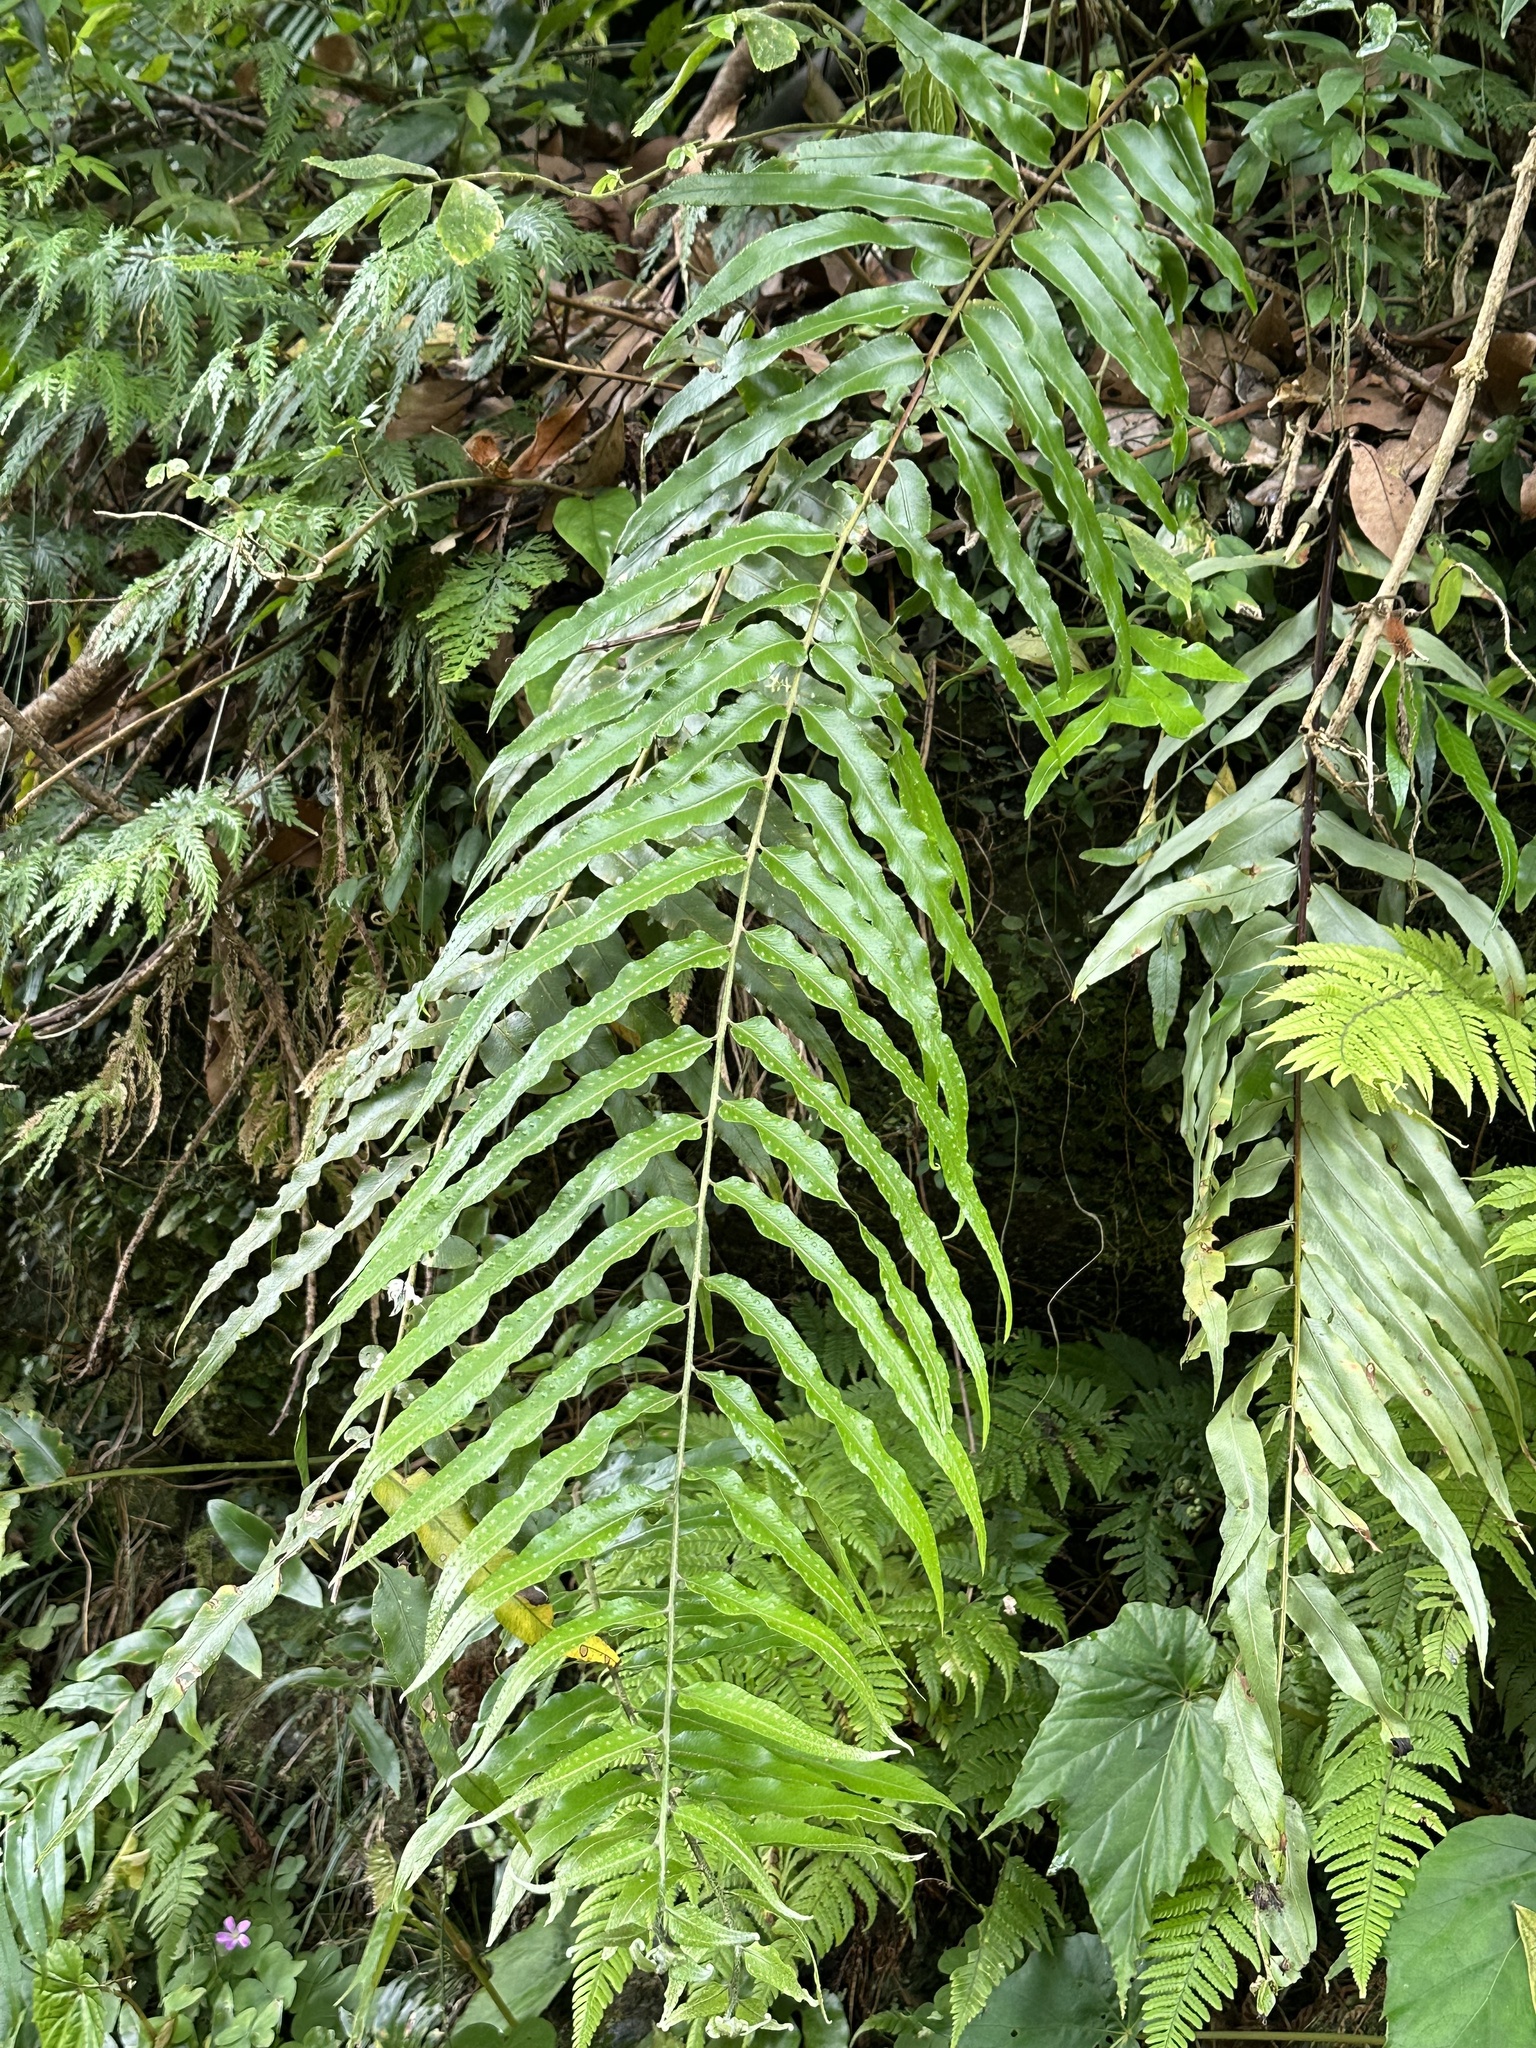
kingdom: Plantae
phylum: Tracheophyta
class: Polypodiopsida
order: Polypodiales
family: Nephrolepidaceae
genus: Nephrolepis
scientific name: Nephrolepis biserrata
